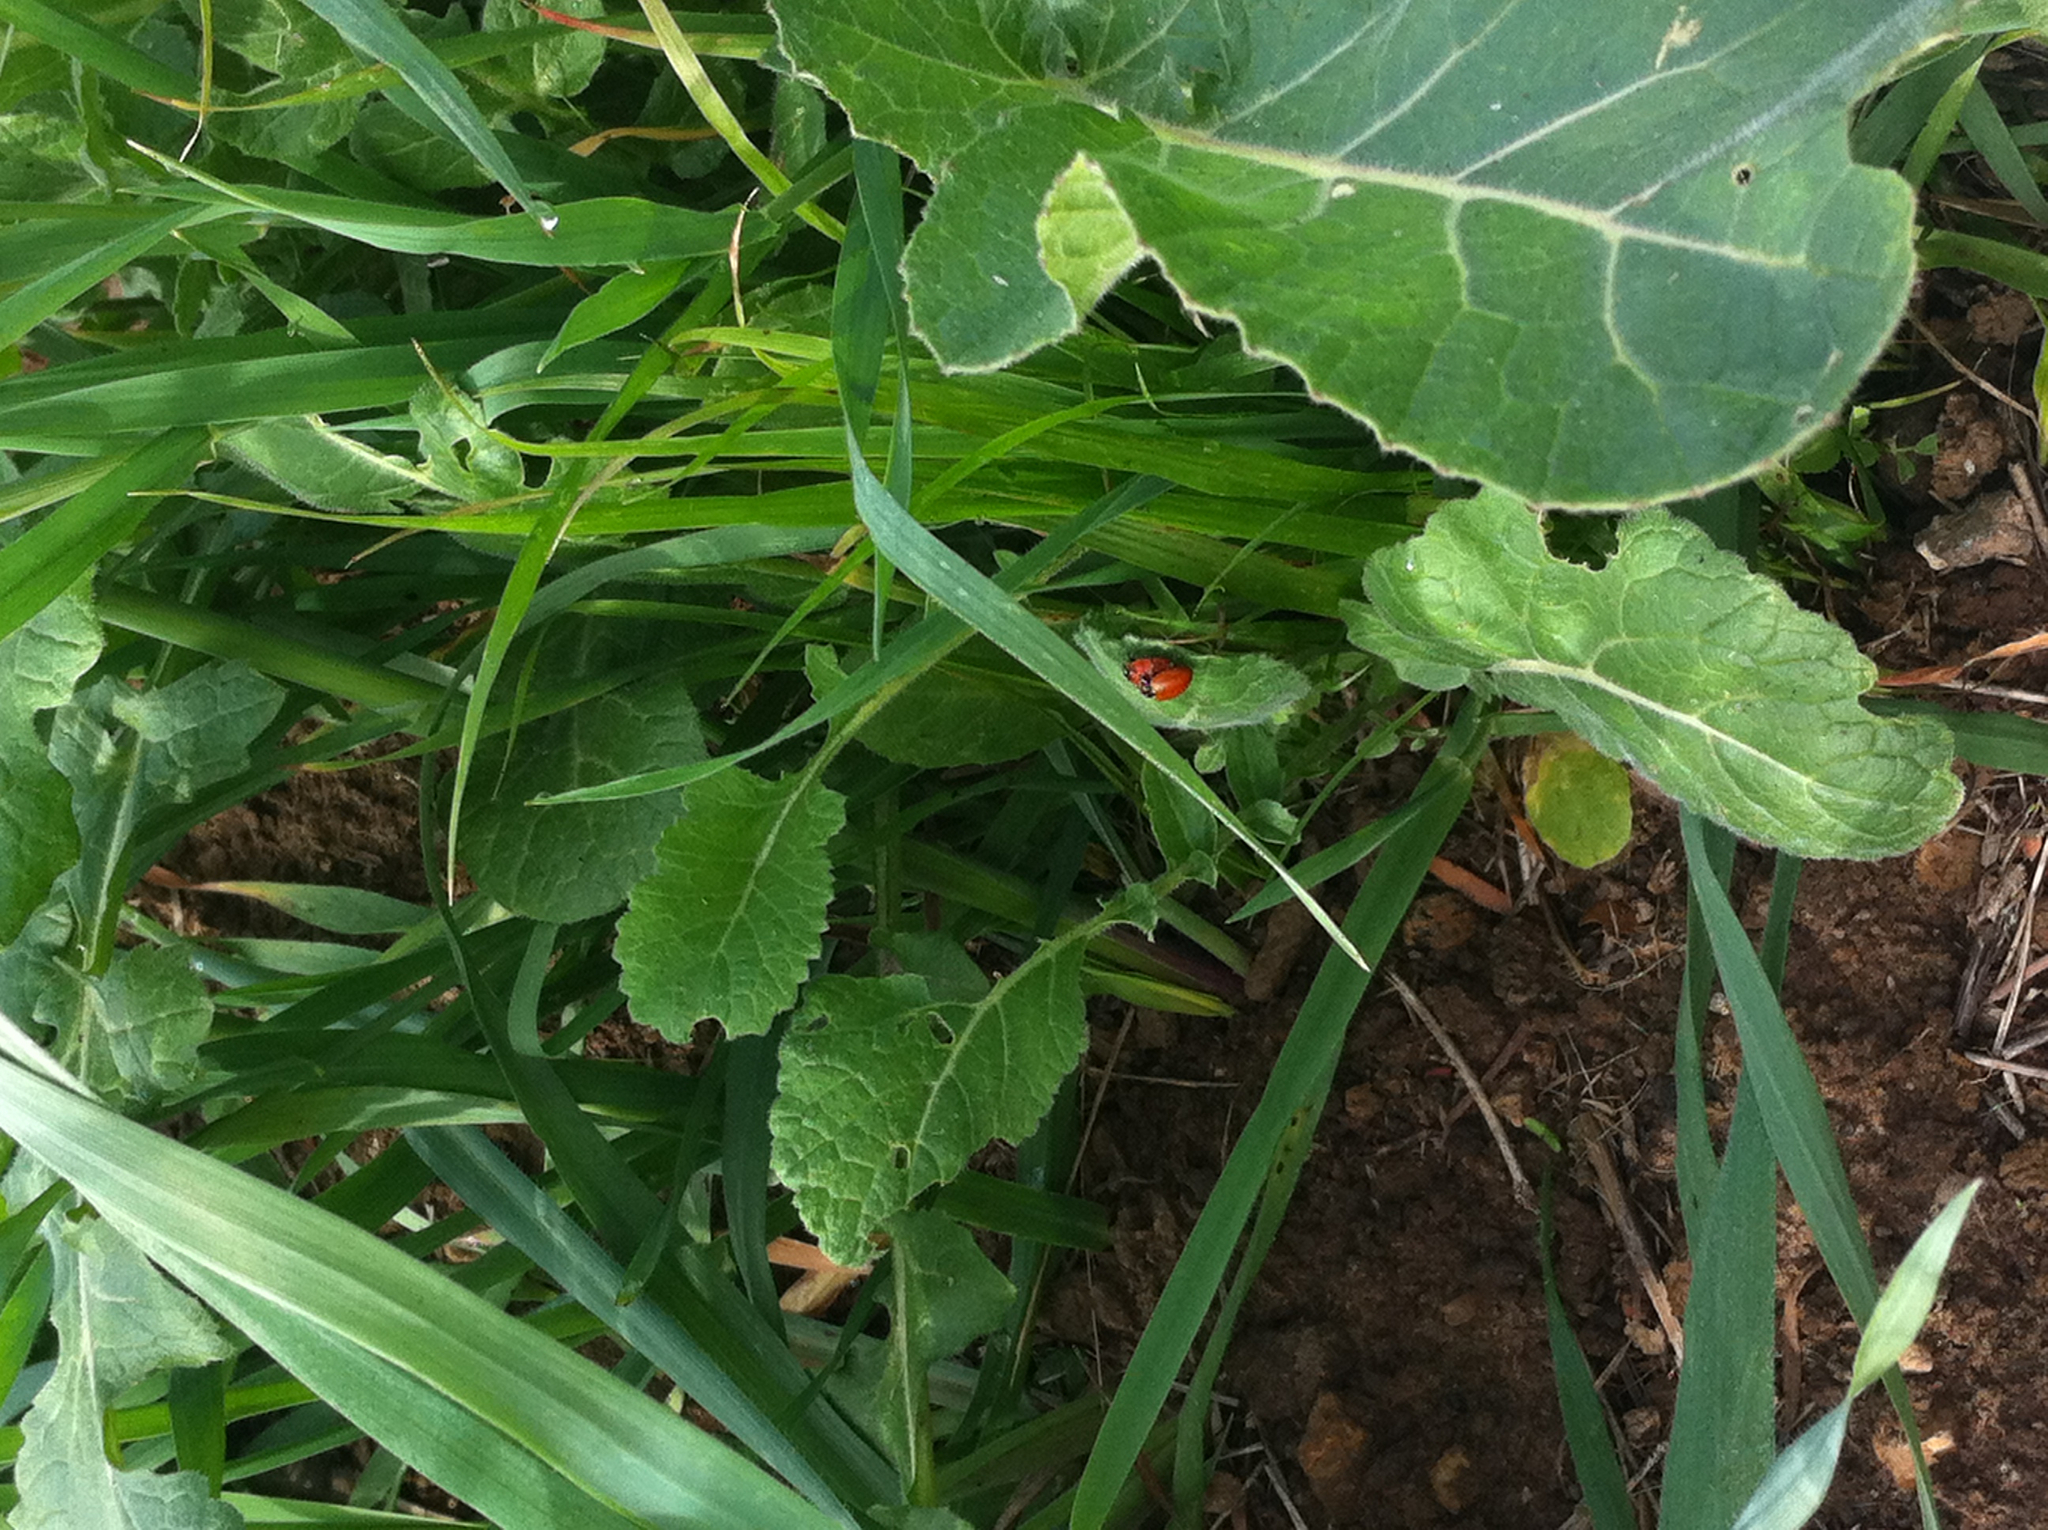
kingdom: Animalia
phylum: Arthropoda
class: Insecta
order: Coleoptera
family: Coccinellidae
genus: Hippodamia
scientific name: Hippodamia convergens
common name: Convergent lady beetle
